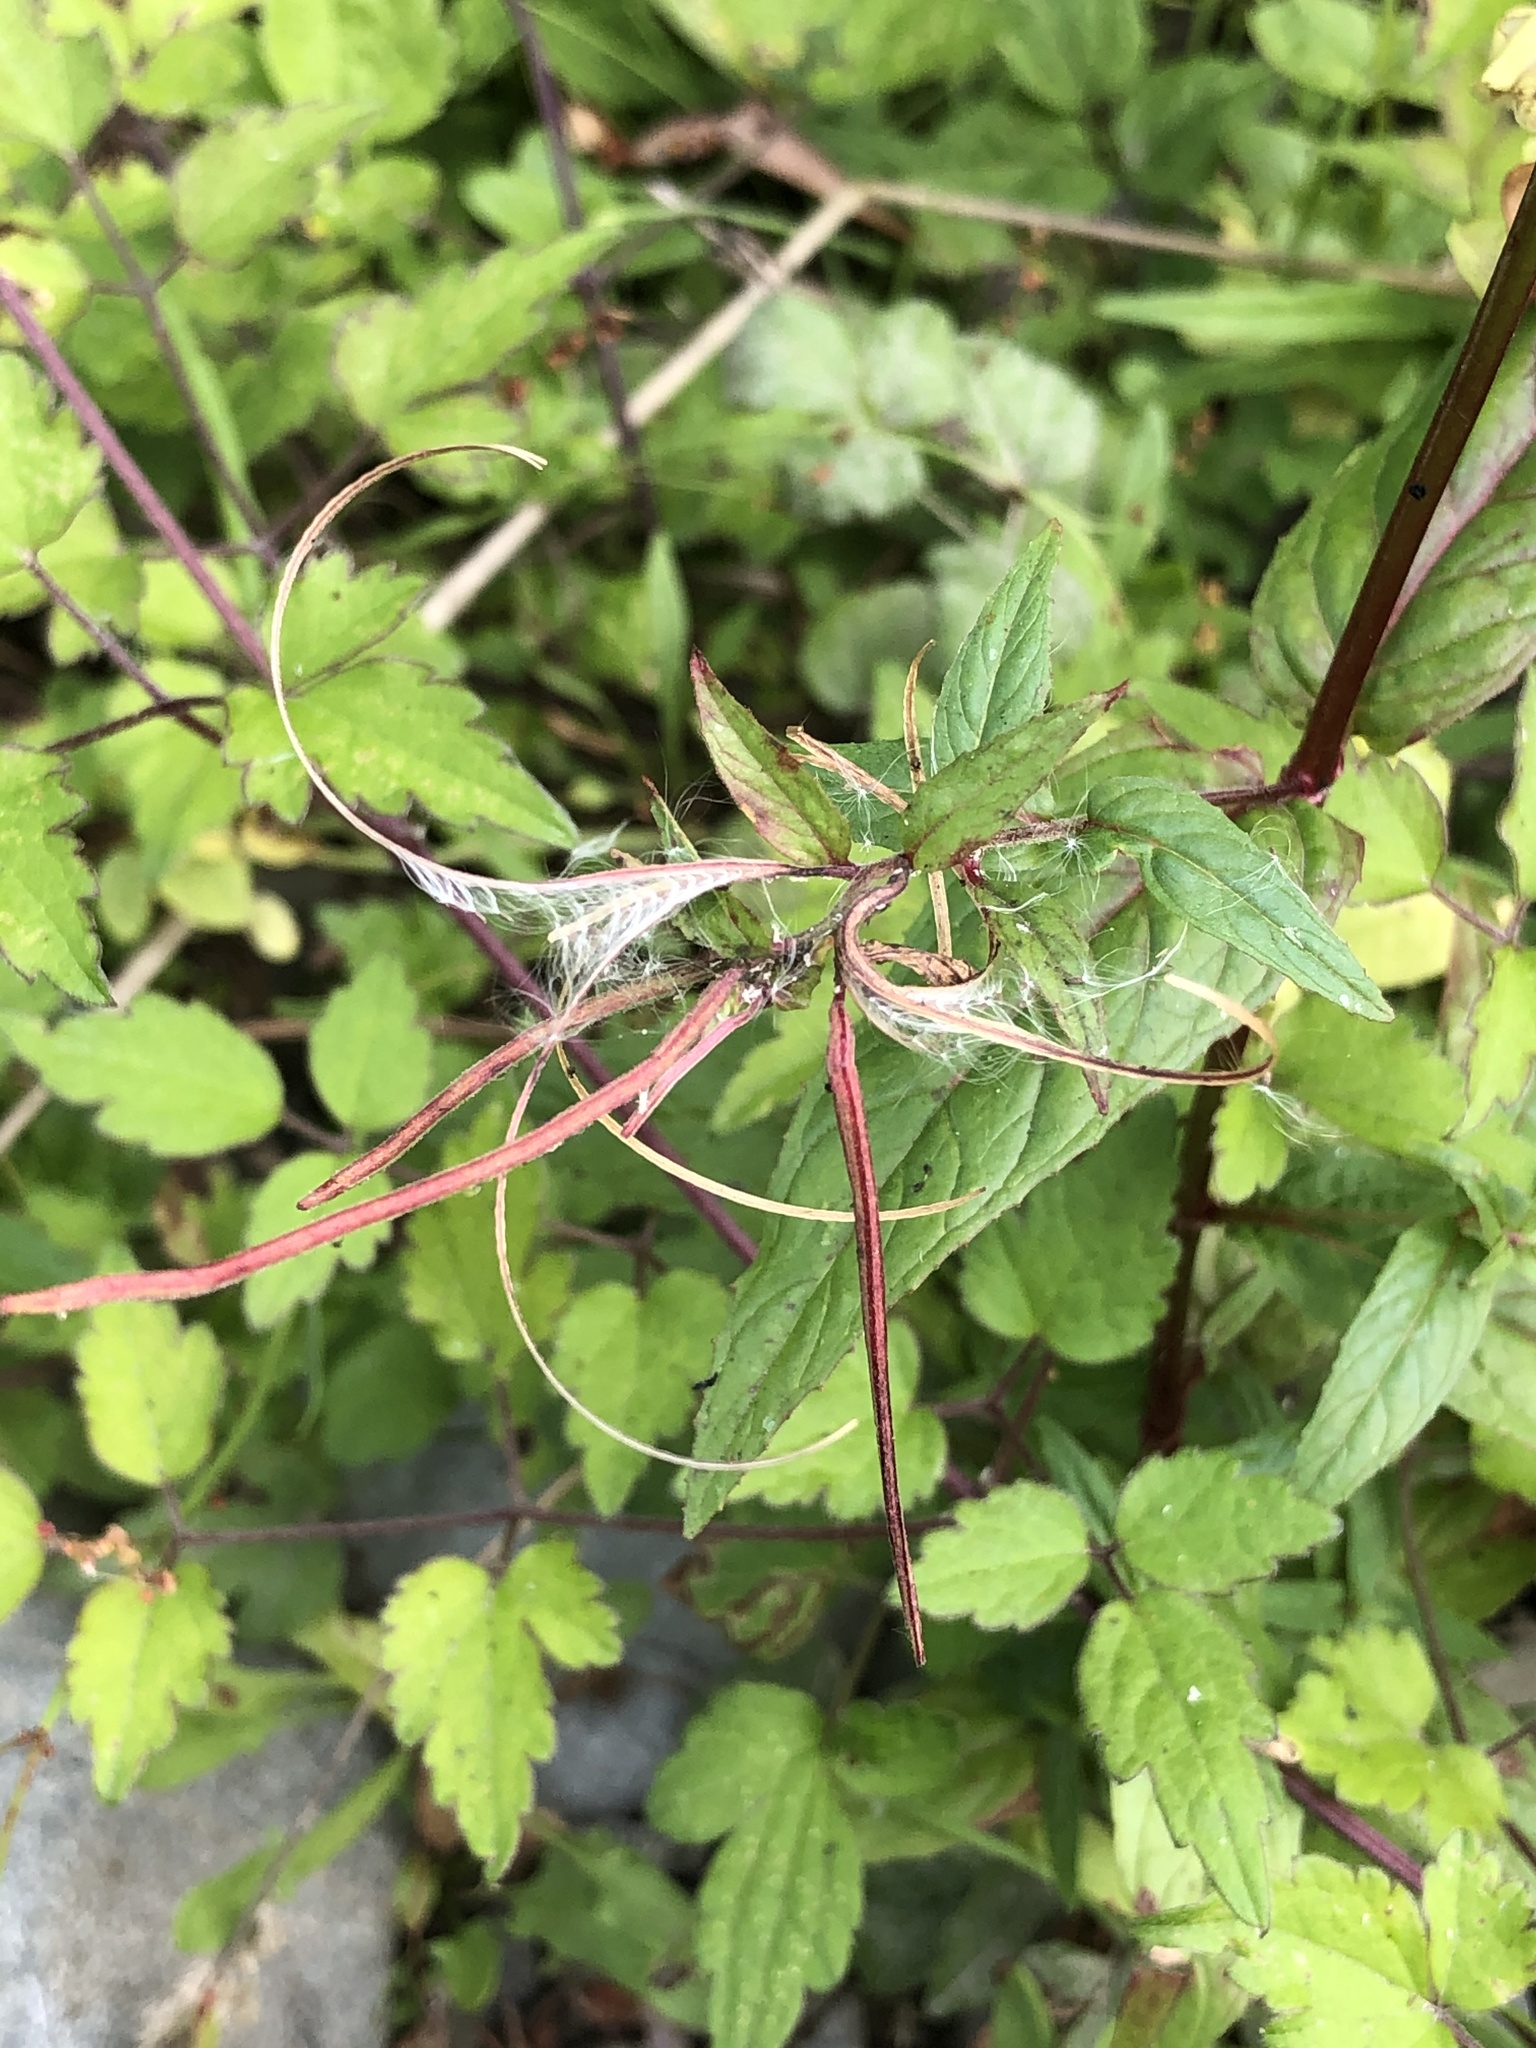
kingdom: Plantae
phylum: Tracheophyta
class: Magnoliopsida
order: Myrtales
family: Onagraceae
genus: Epilobium
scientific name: Epilobium ciliatum
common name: American willowherb
